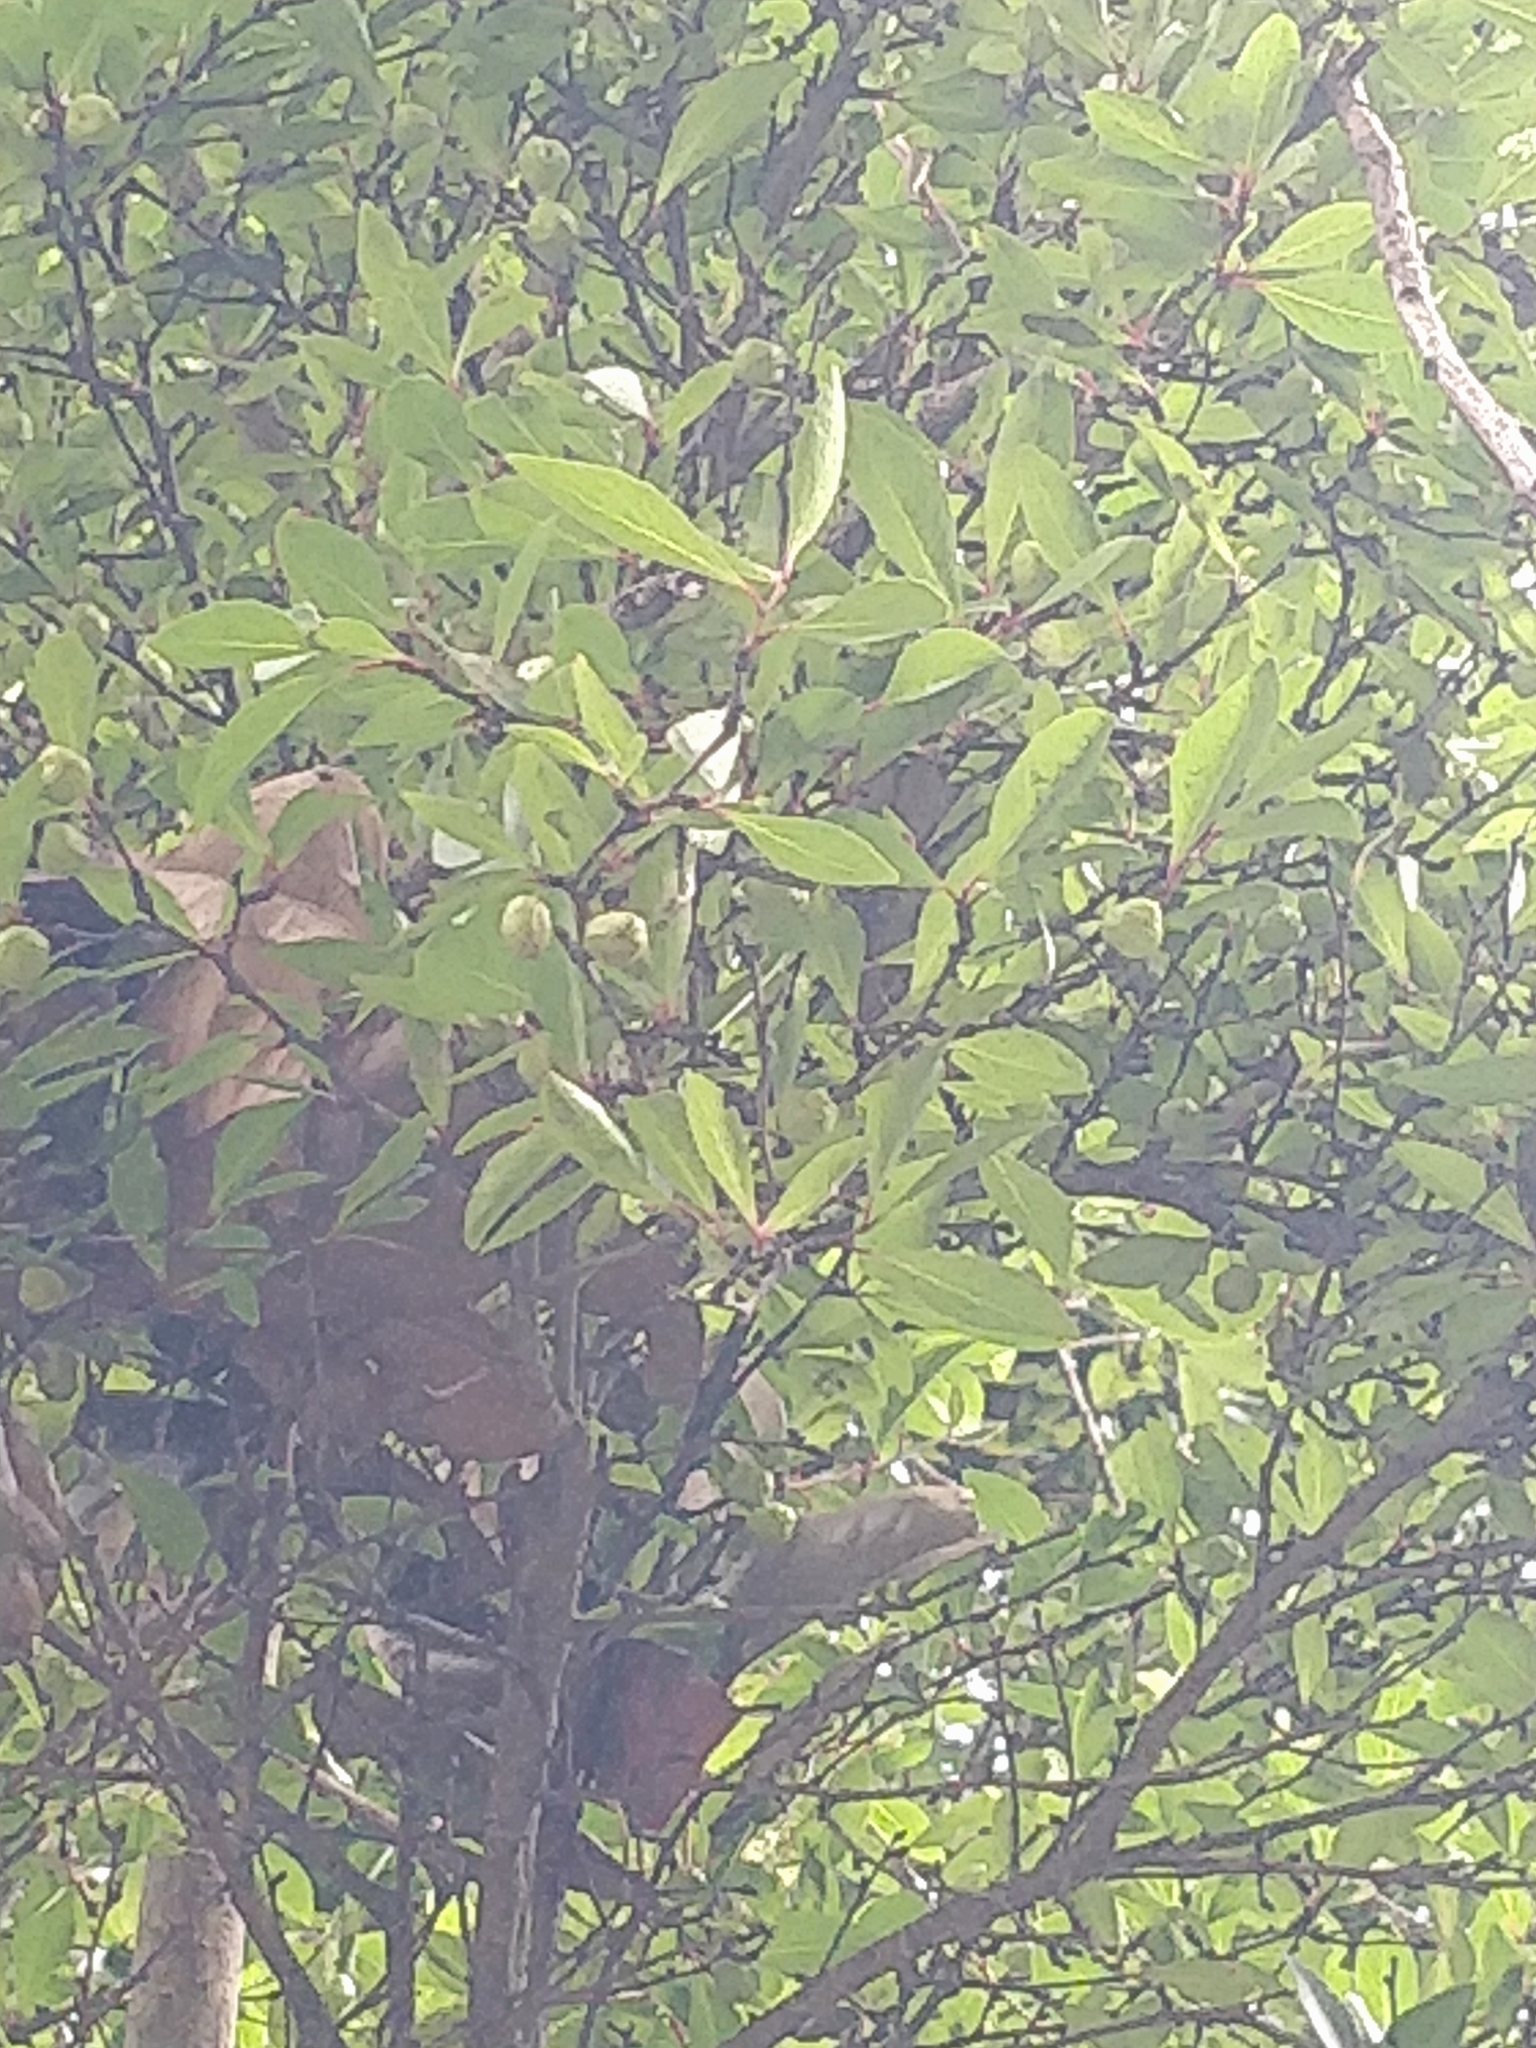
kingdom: Plantae
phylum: Tracheophyta
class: Magnoliopsida
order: Celastrales
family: Celastraceae
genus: Gymnosporia
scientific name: Gymnosporia dryandri
